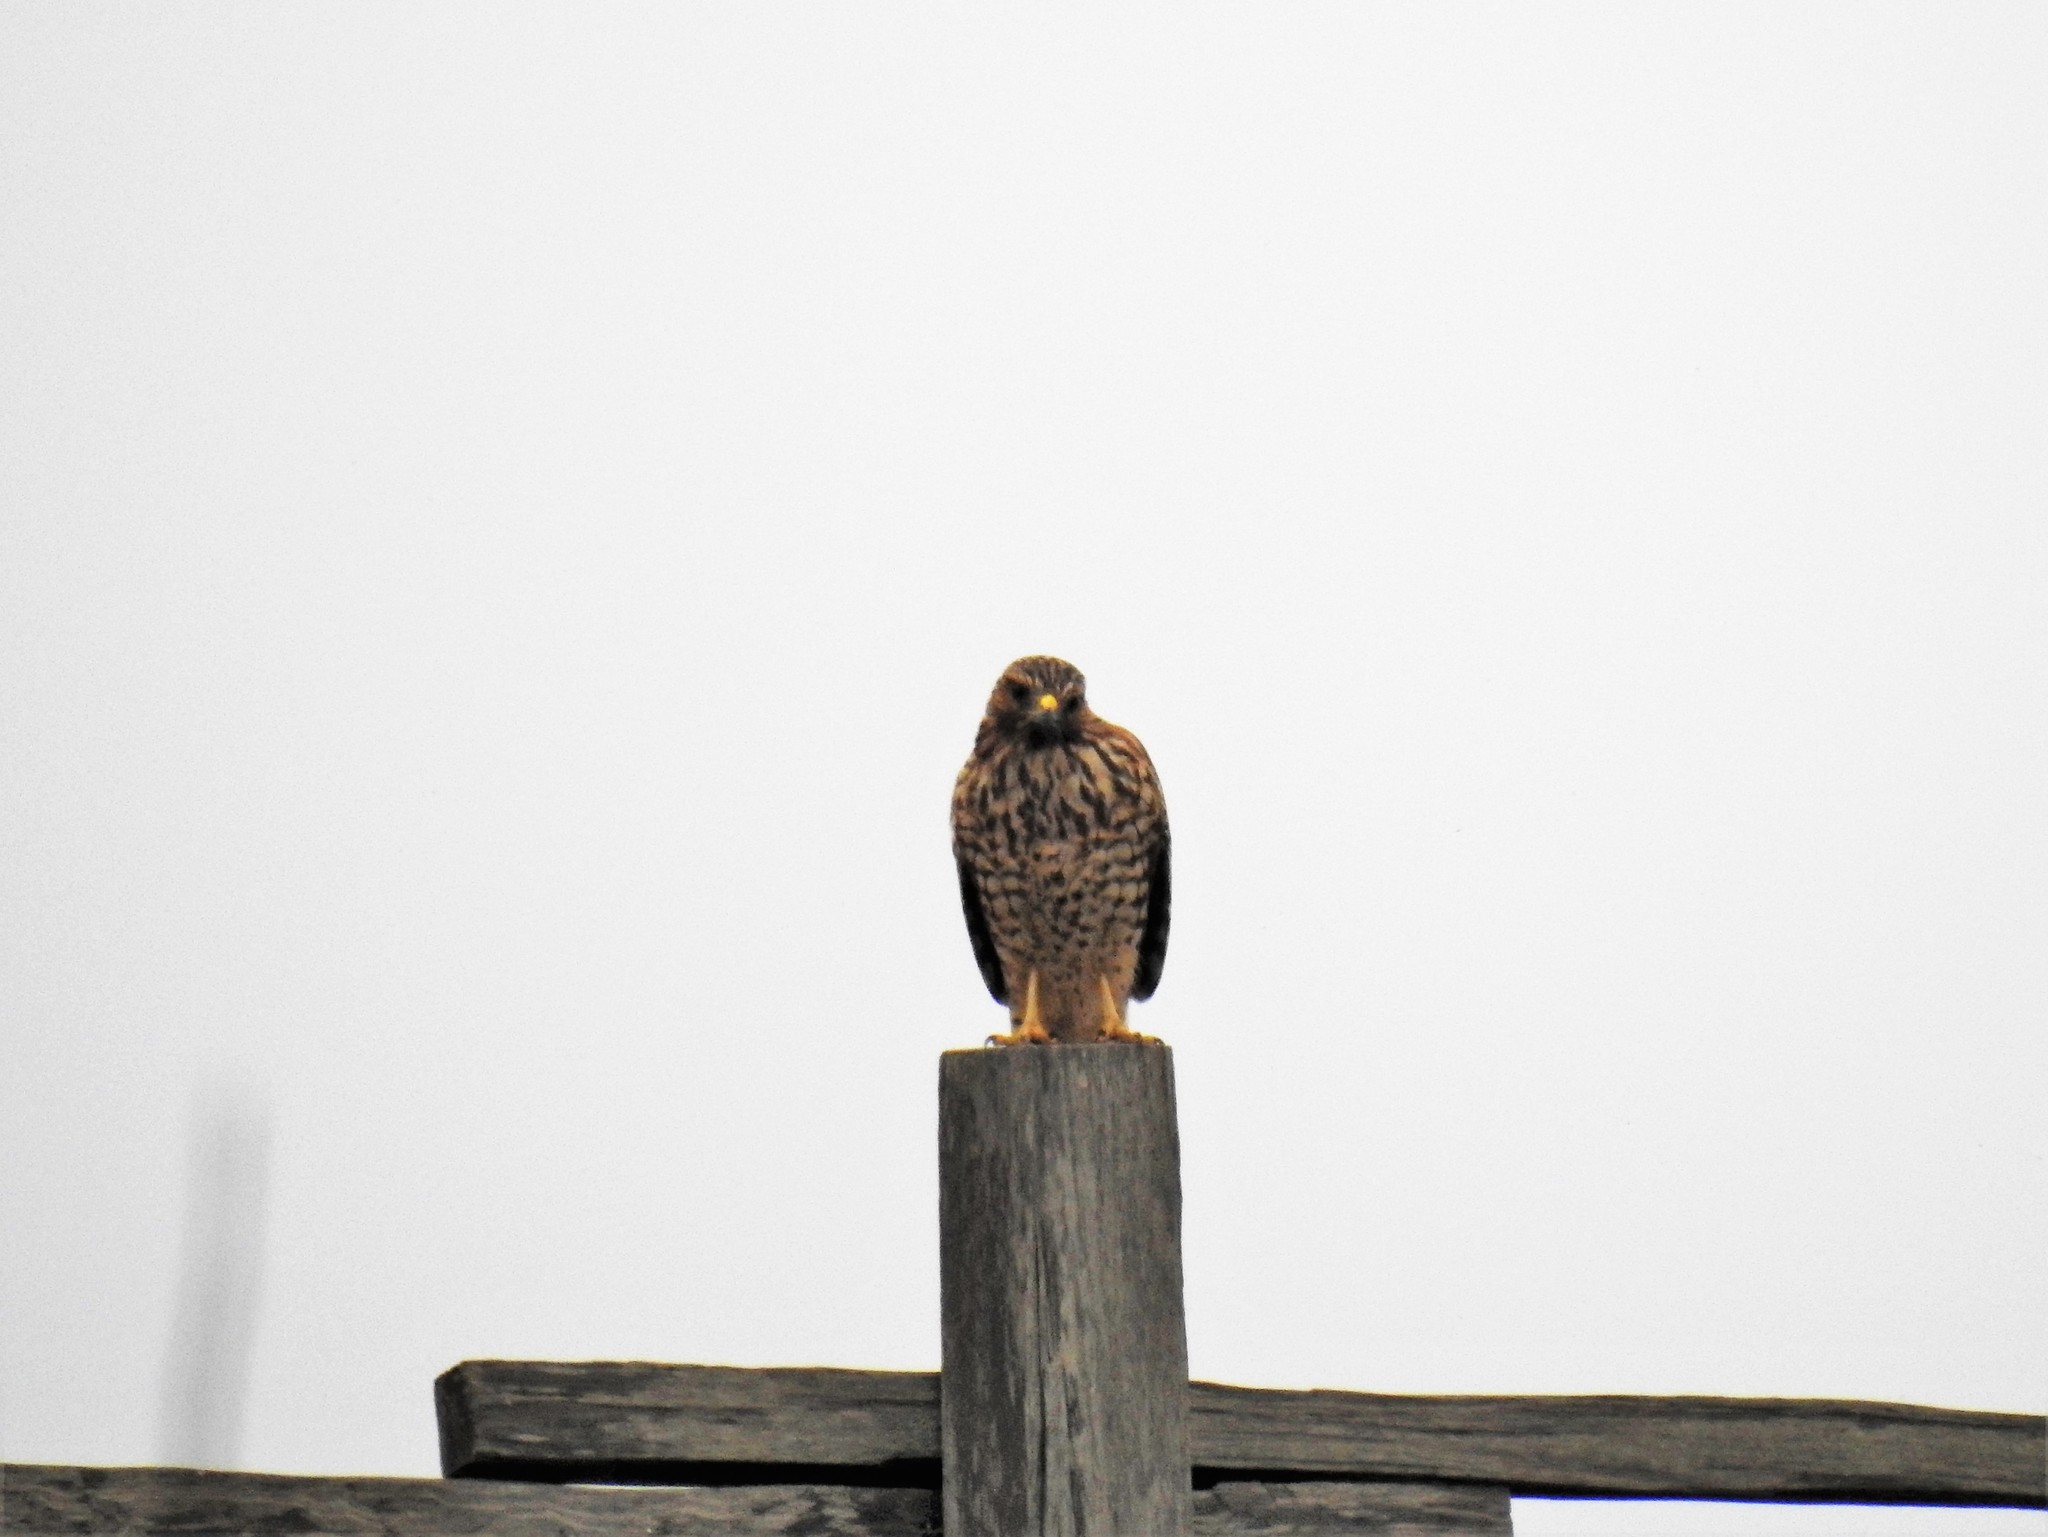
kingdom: Animalia
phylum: Chordata
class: Aves
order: Accipitriformes
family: Accipitridae
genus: Buteo
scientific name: Buteo lineatus
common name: Red-shouldered hawk
